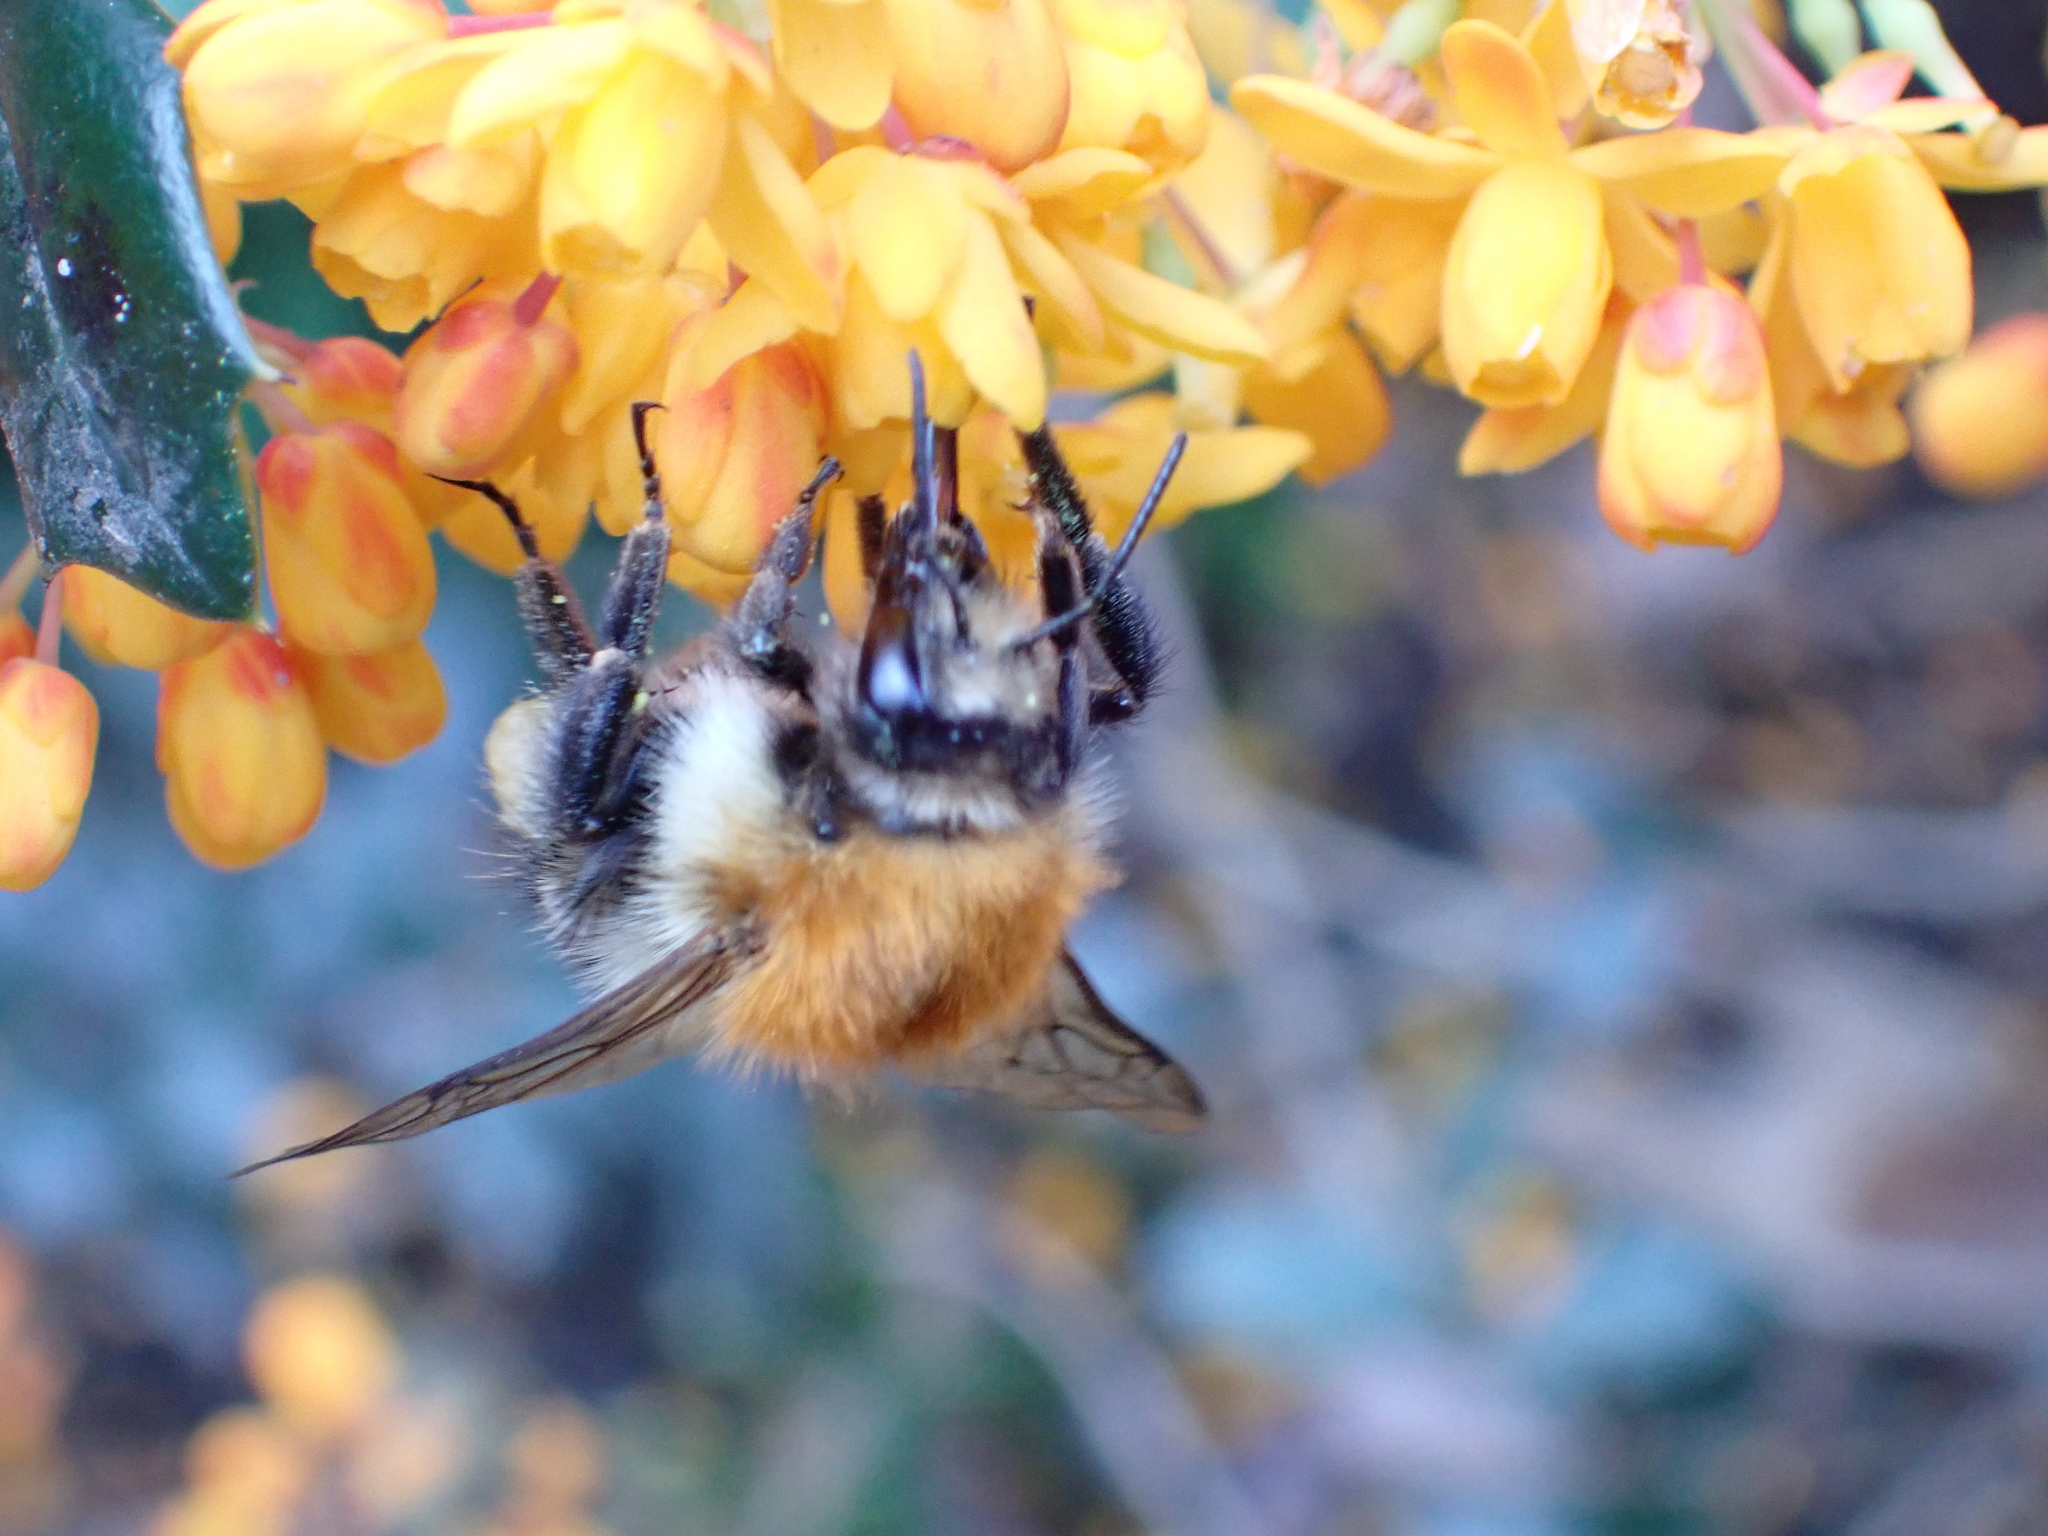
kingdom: Animalia
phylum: Arthropoda
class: Insecta
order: Hymenoptera
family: Apidae
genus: Bombus
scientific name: Bombus pascuorum
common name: Common carder bee
